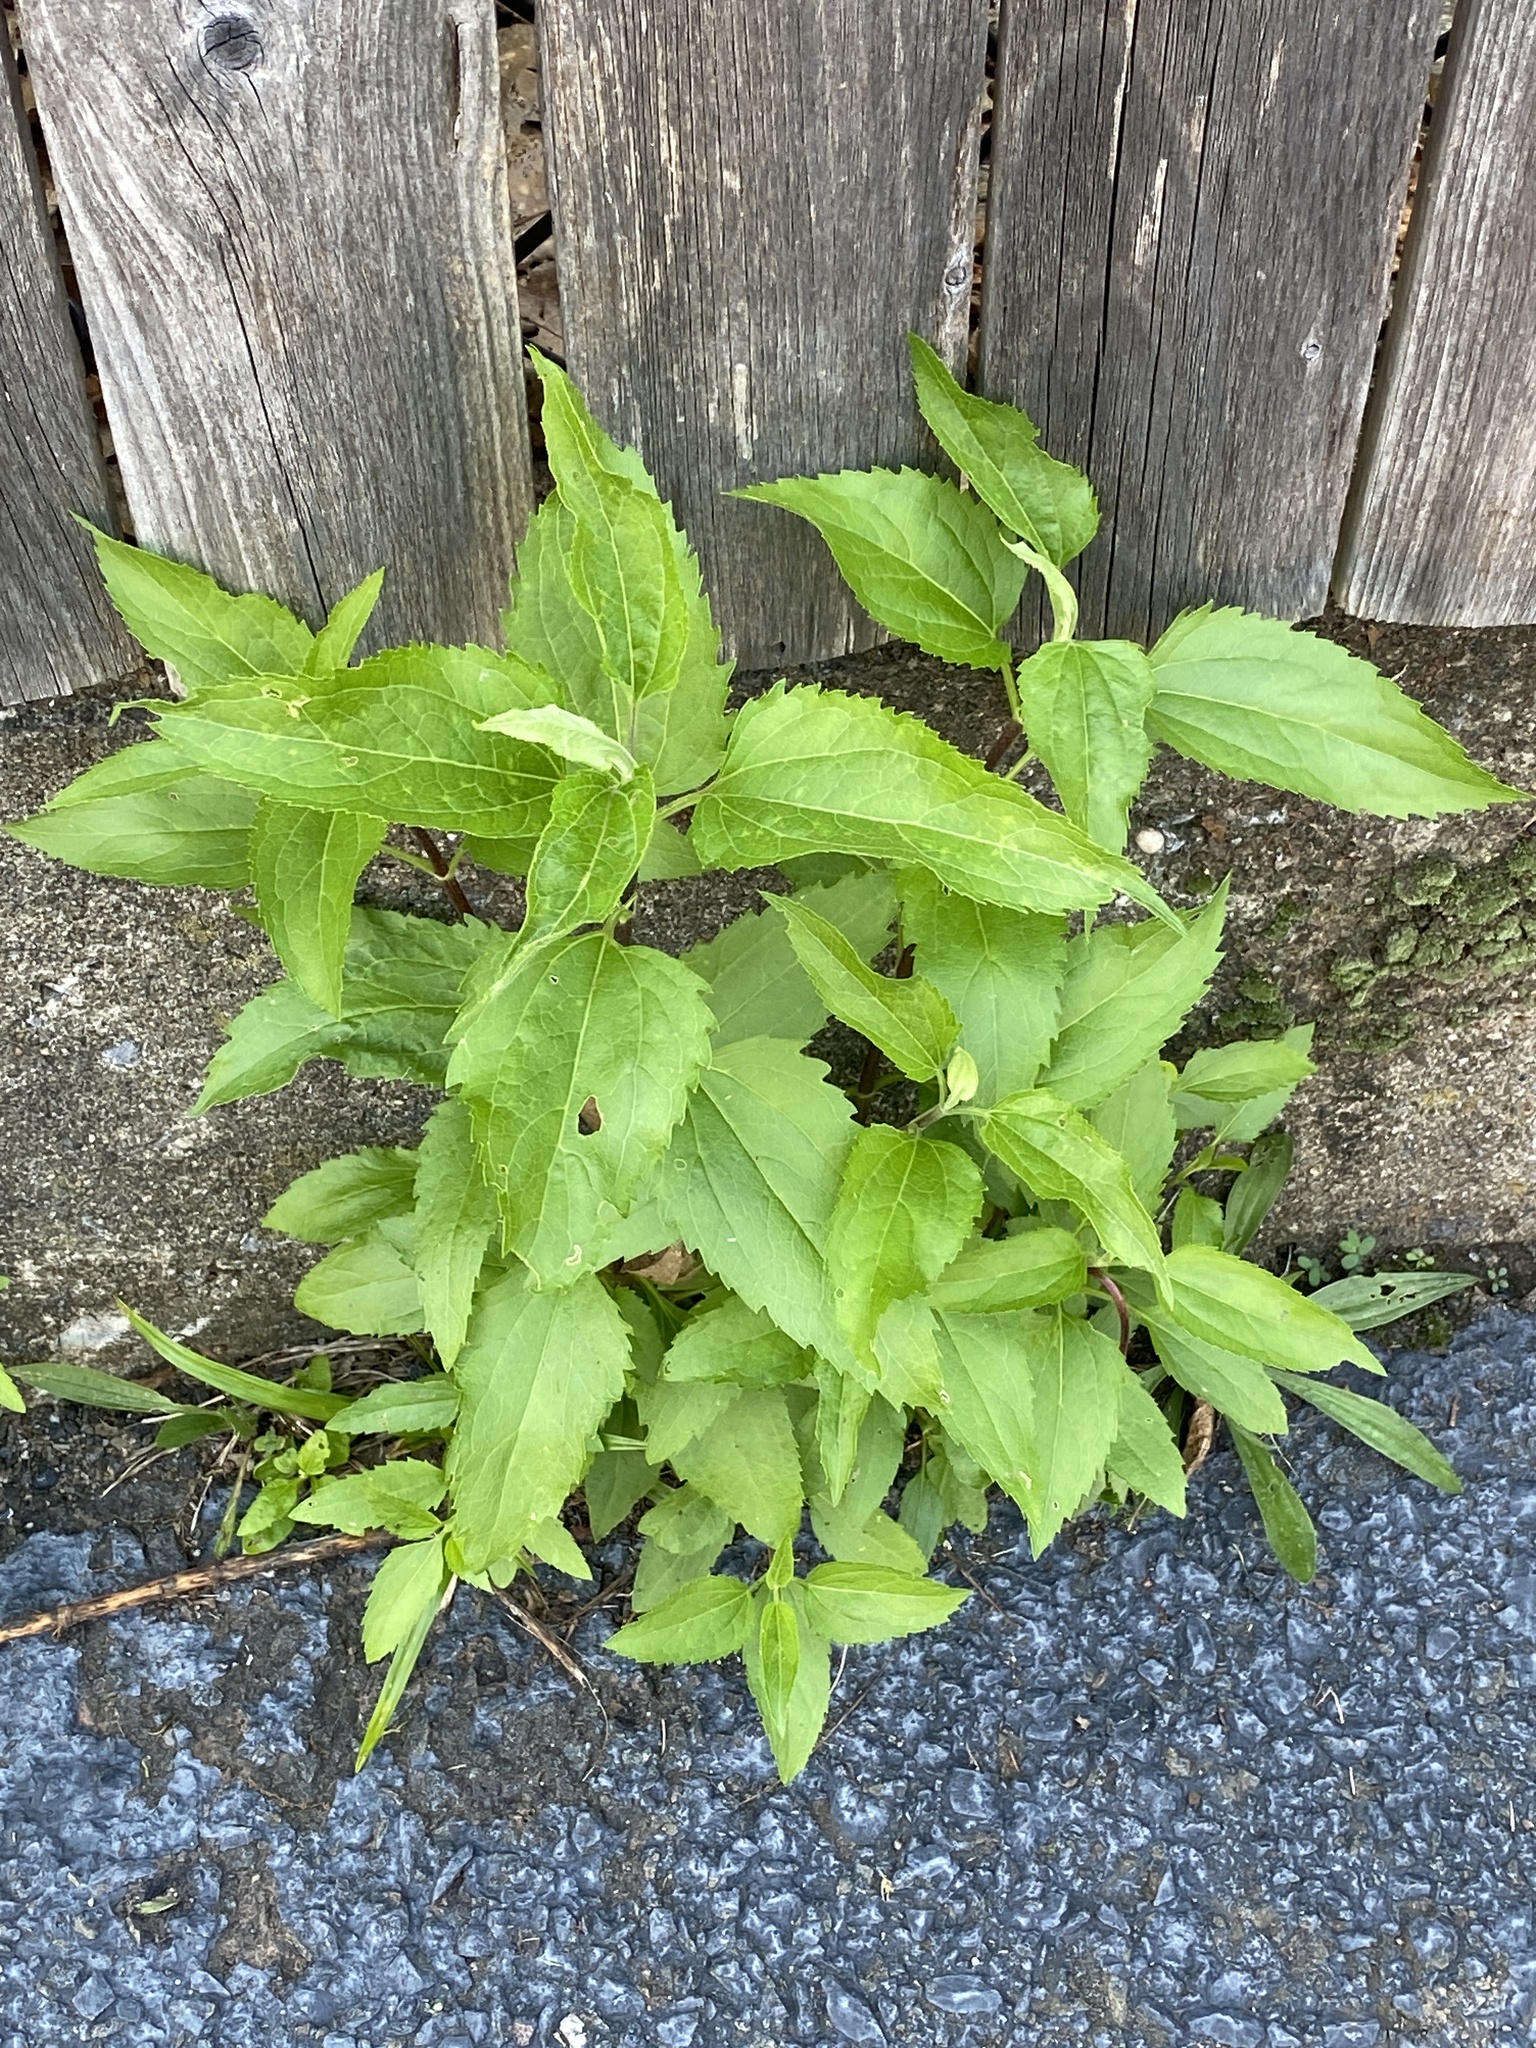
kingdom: Plantae
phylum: Tracheophyta
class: Magnoliopsida
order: Asterales
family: Asteraceae
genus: Eupatorium
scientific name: Eupatorium serotinum
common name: Late boneset
